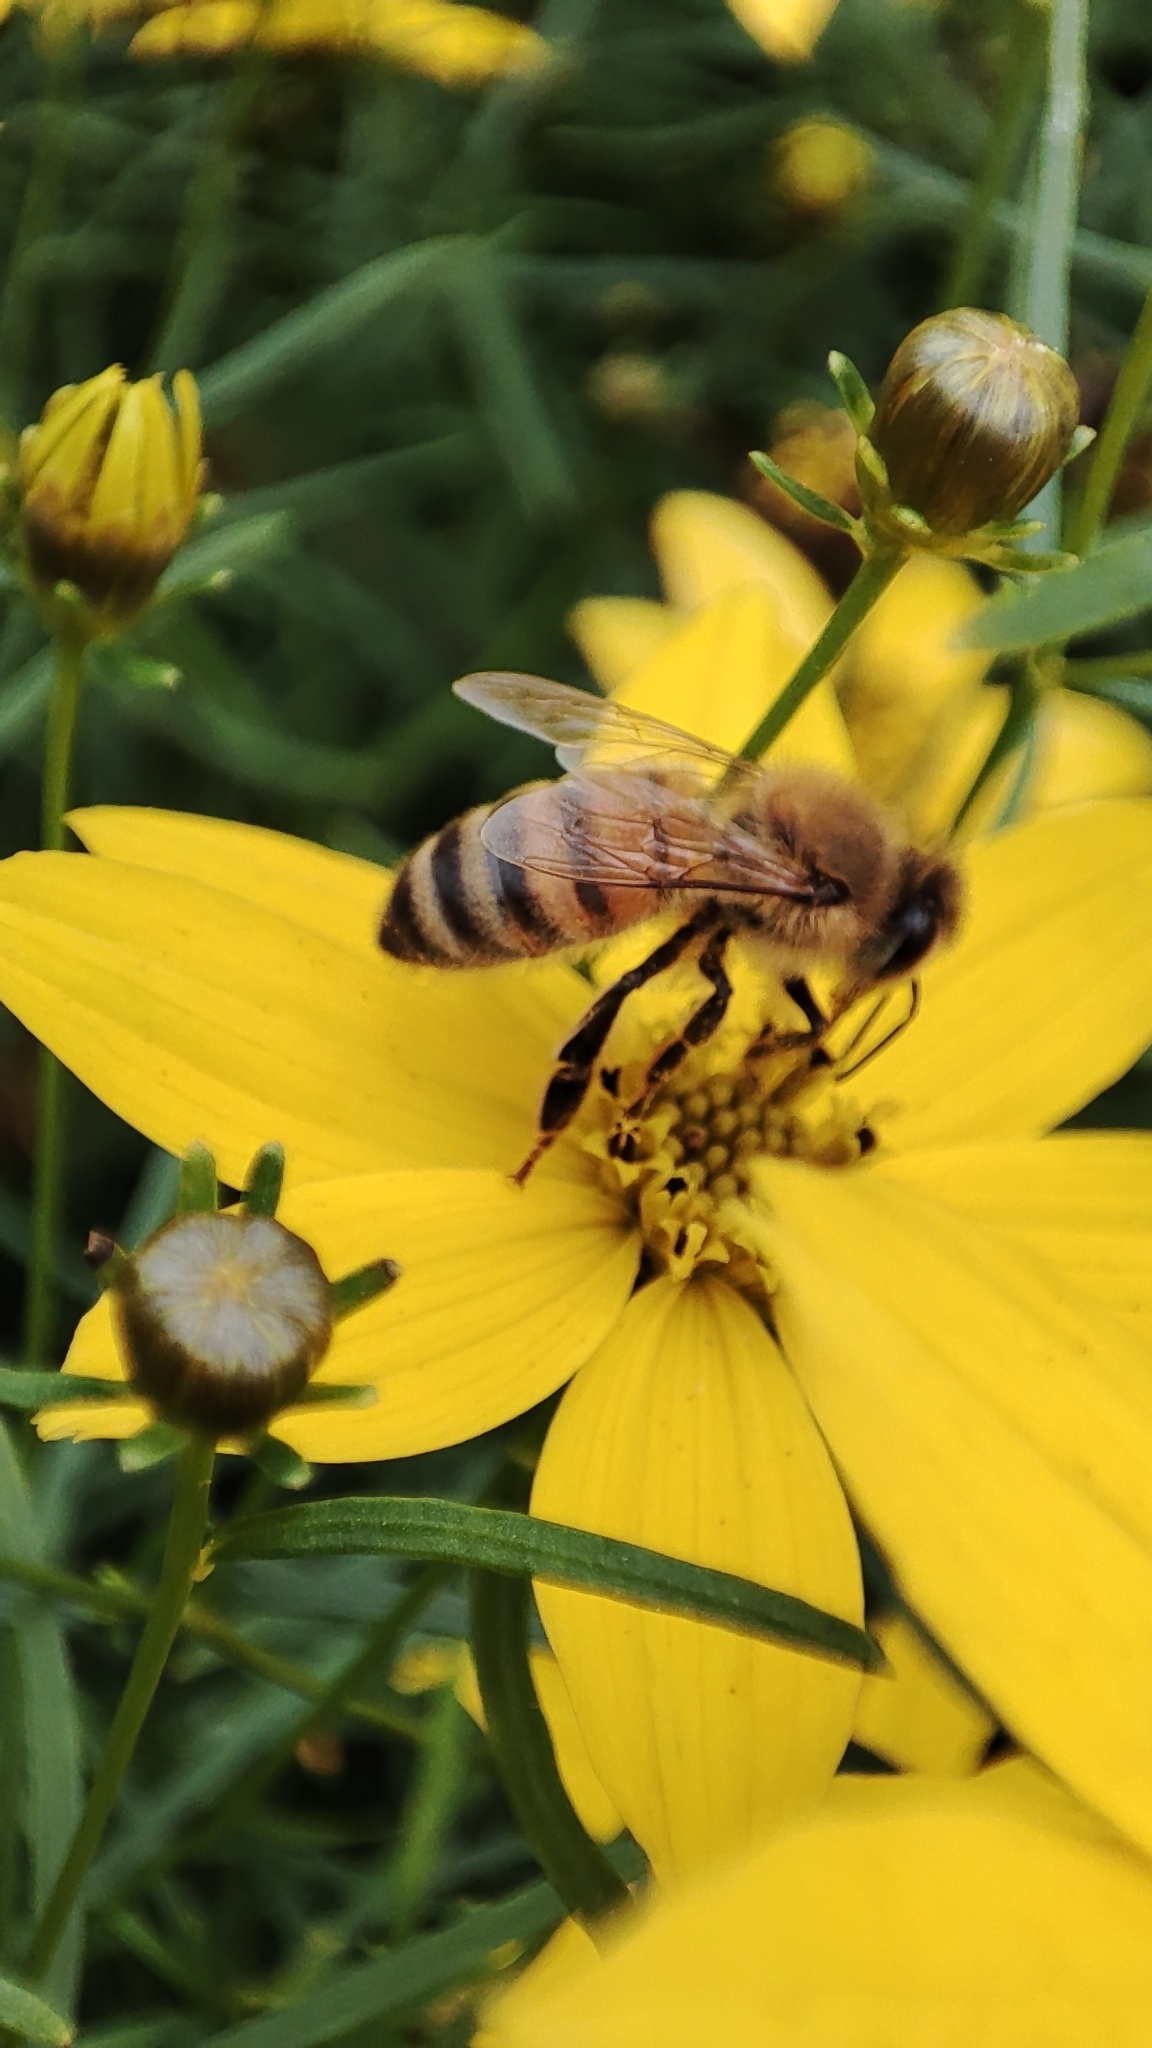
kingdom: Animalia
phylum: Arthropoda
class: Insecta
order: Hymenoptera
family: Apidae
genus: Apis
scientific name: Apis mellifera
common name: Honey bee
